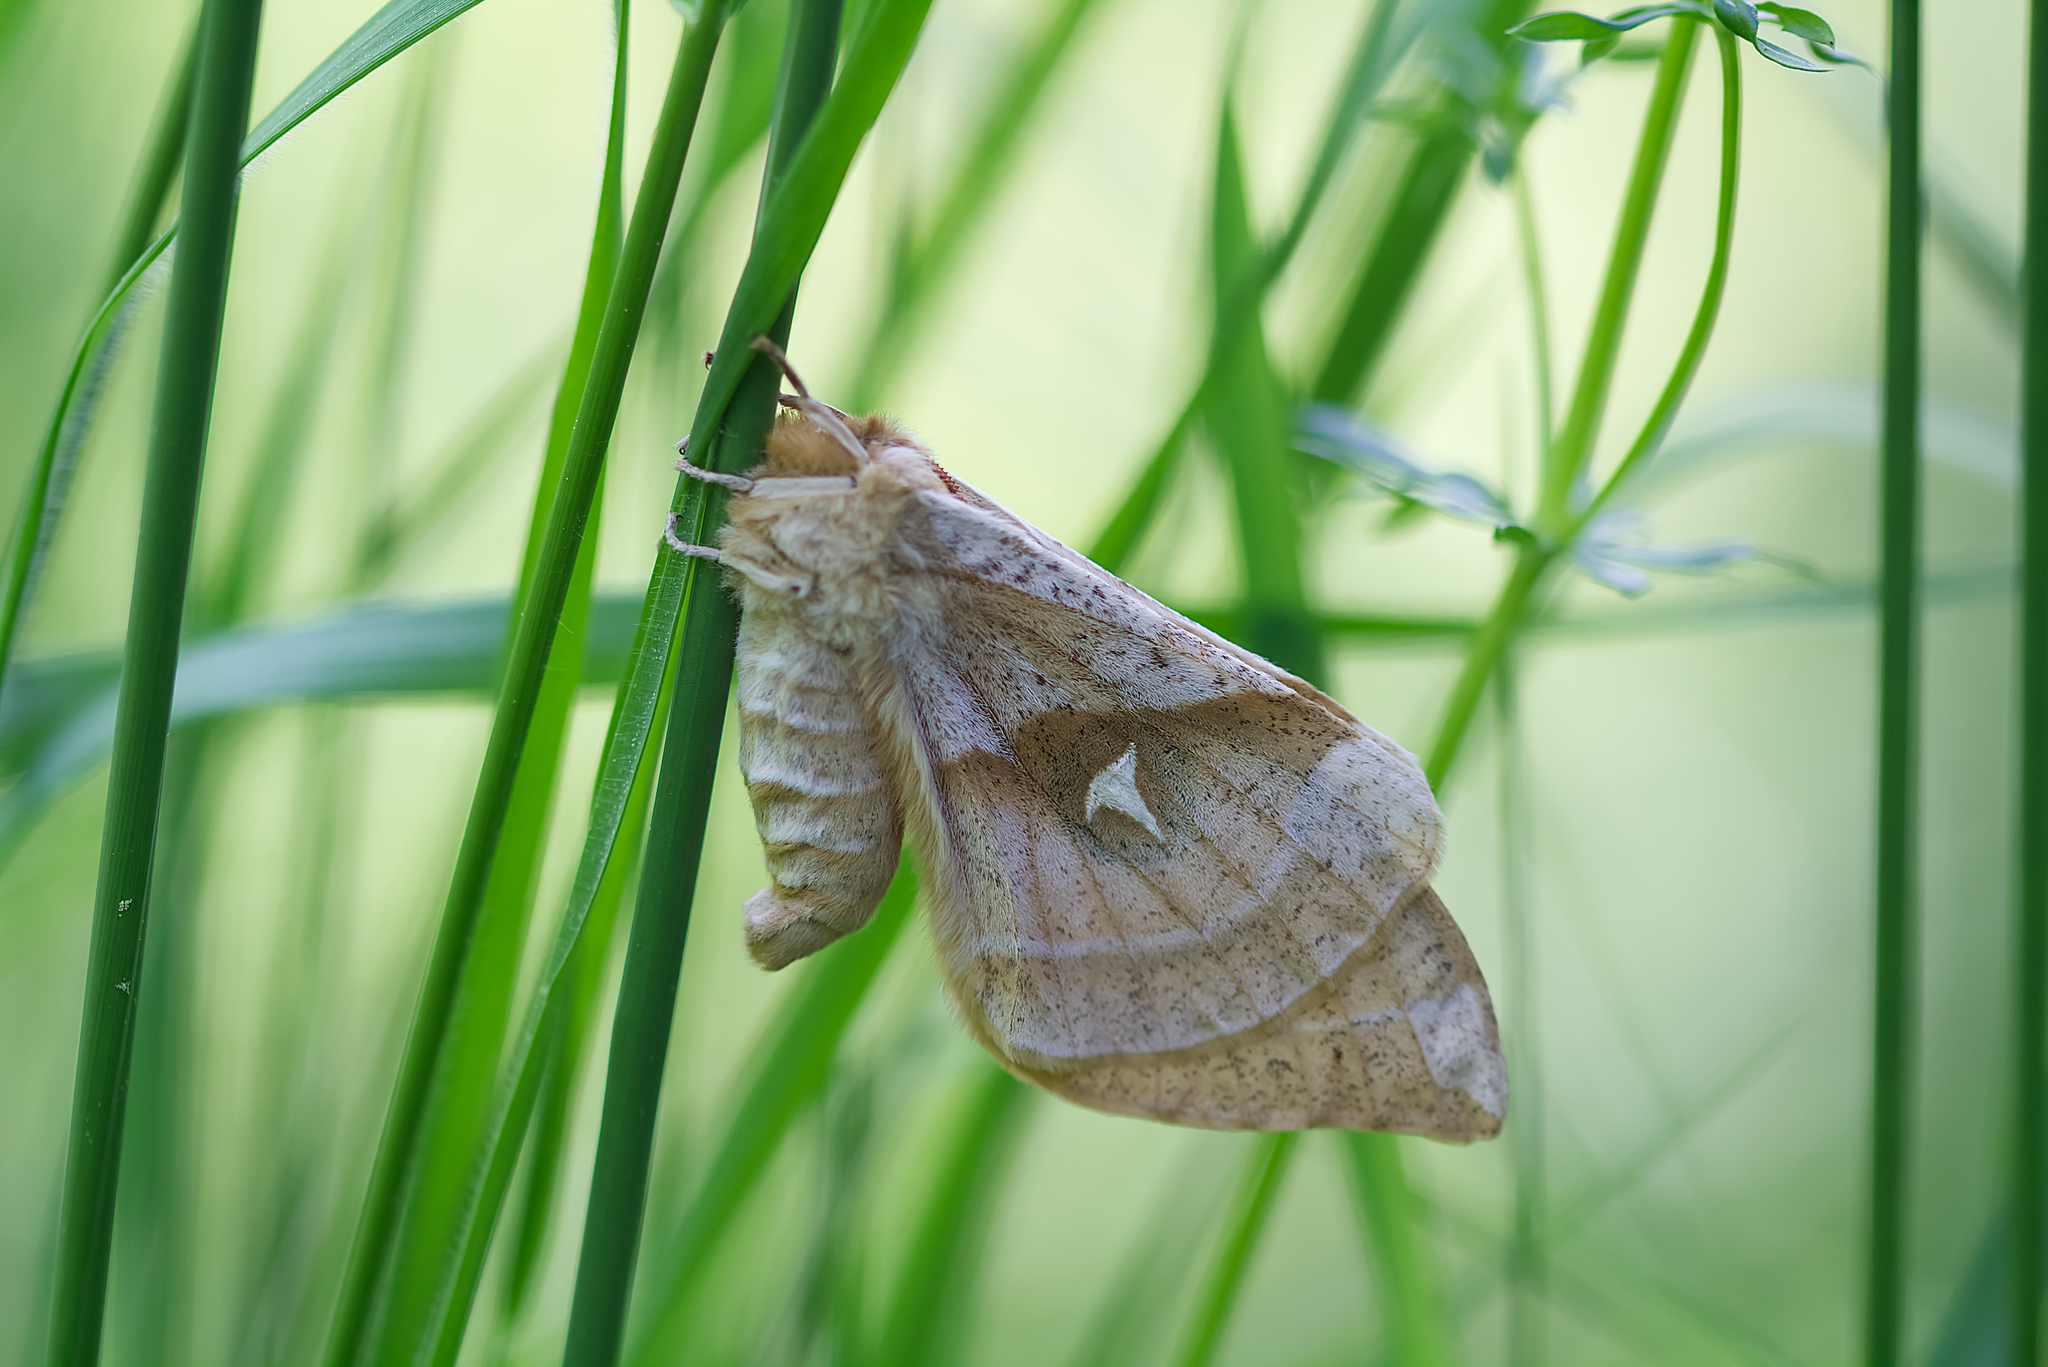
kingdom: Animalia
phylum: Arthropoda
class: Insecta
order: Lepidoptera
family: Saturniidae
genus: Aglia
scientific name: Aglia tau
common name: Tau emperor
